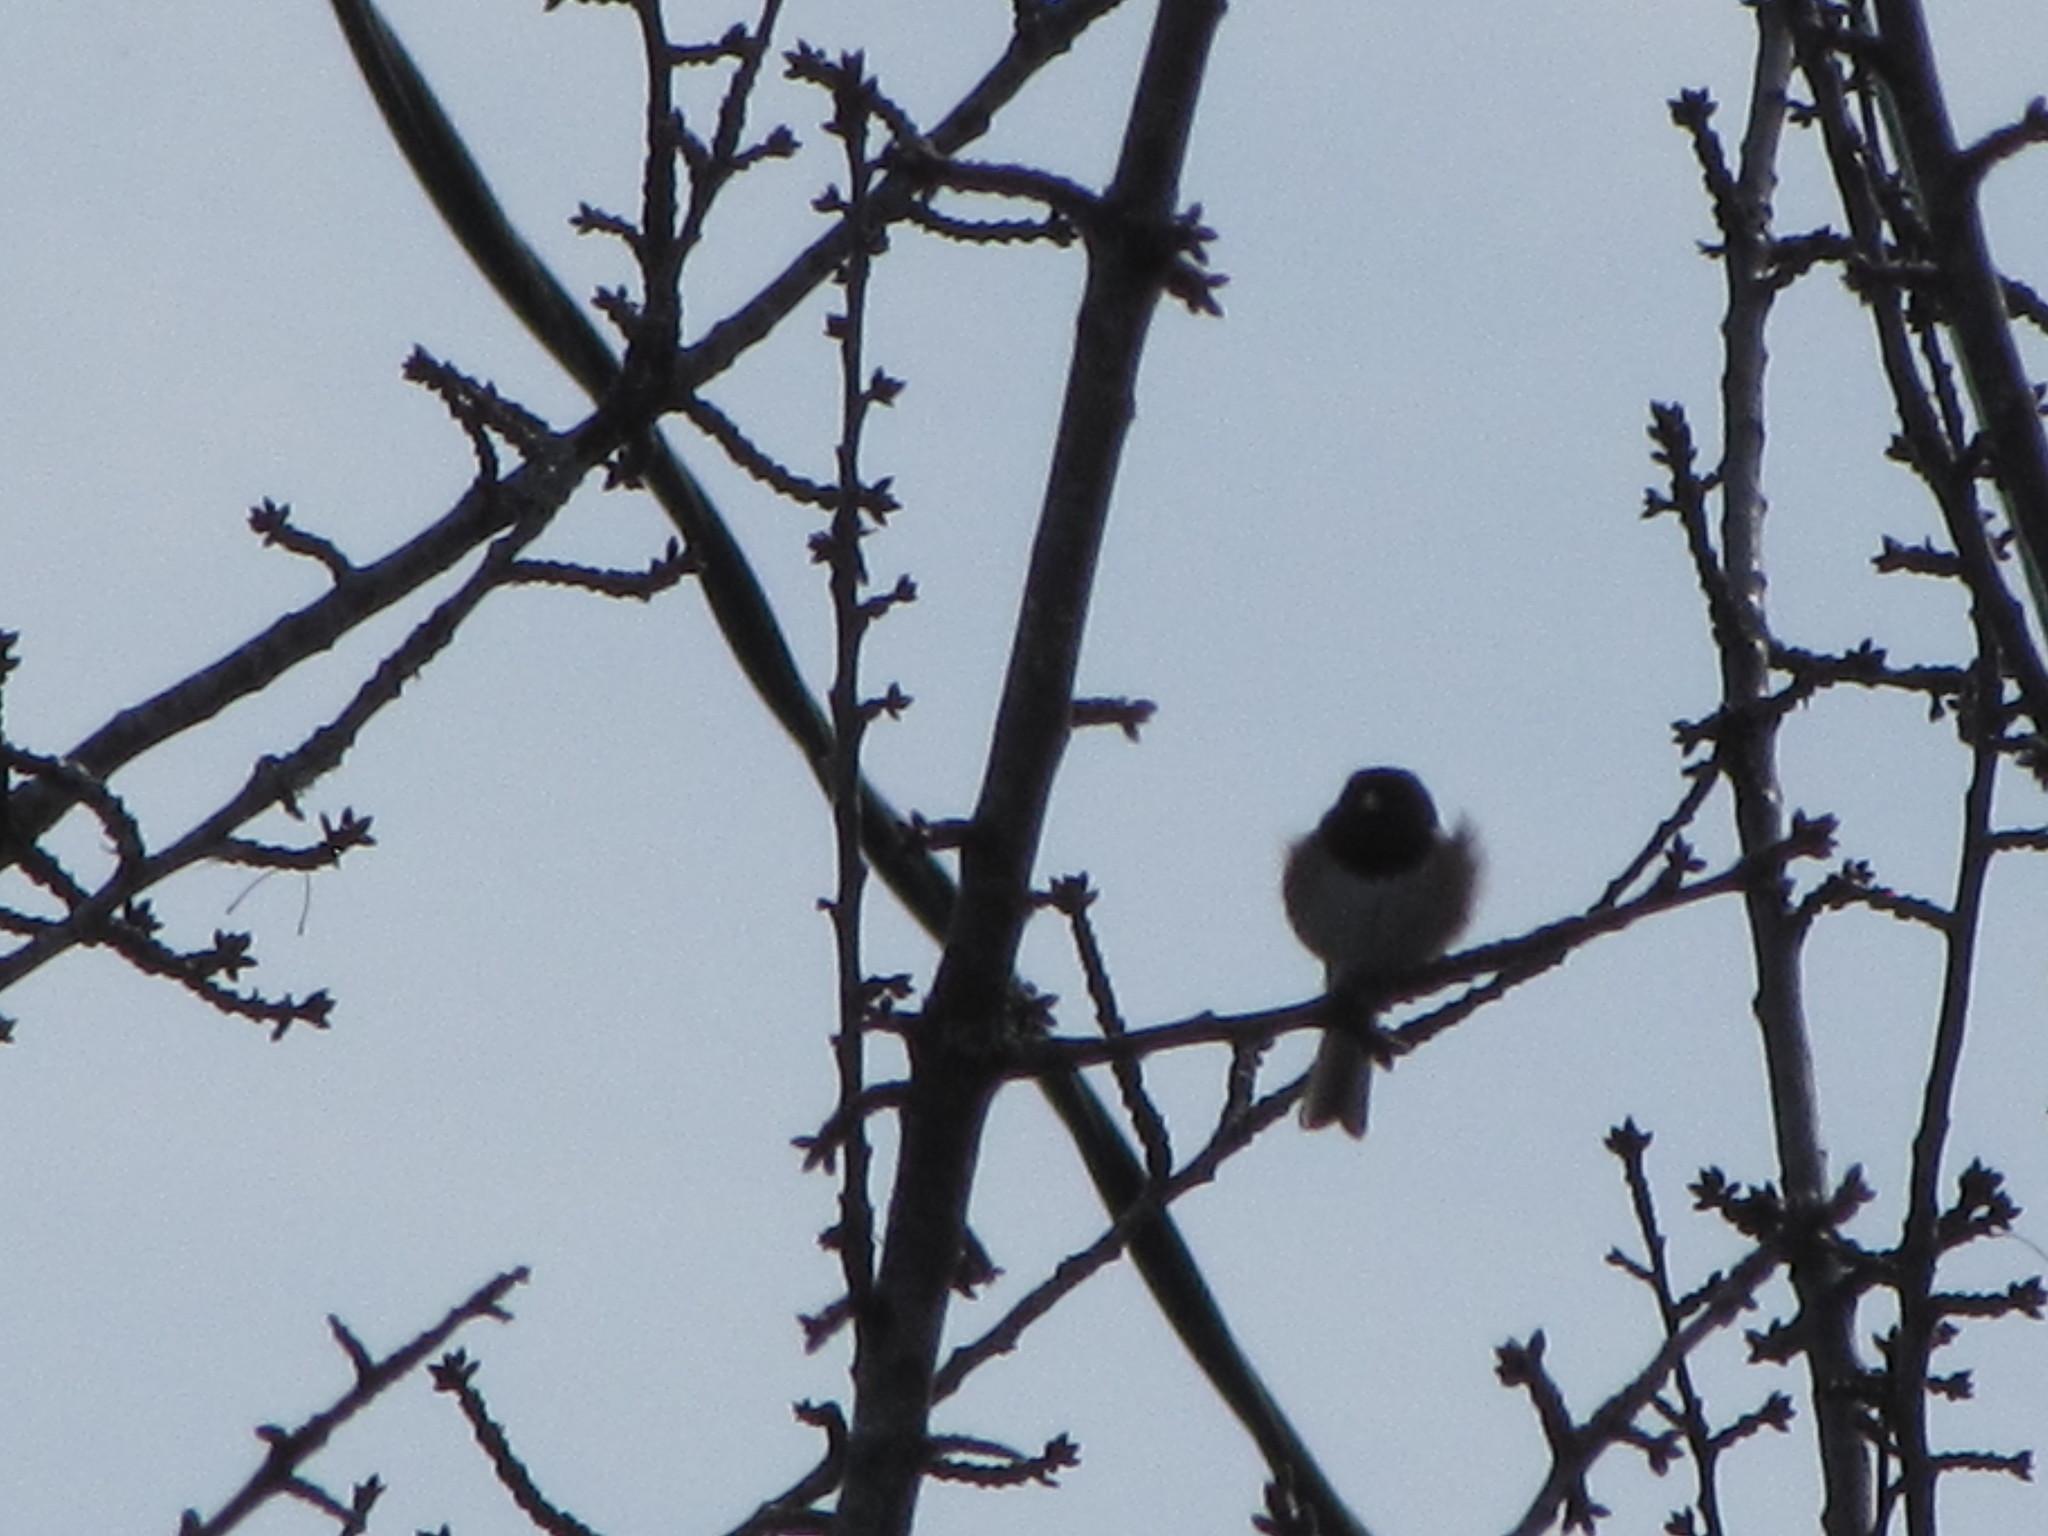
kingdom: Animalia
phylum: Chordata
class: Aves
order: Passeriformes
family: Passerellidae
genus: Junco
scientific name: Junco hyemalis
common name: Dark-eyed junco
